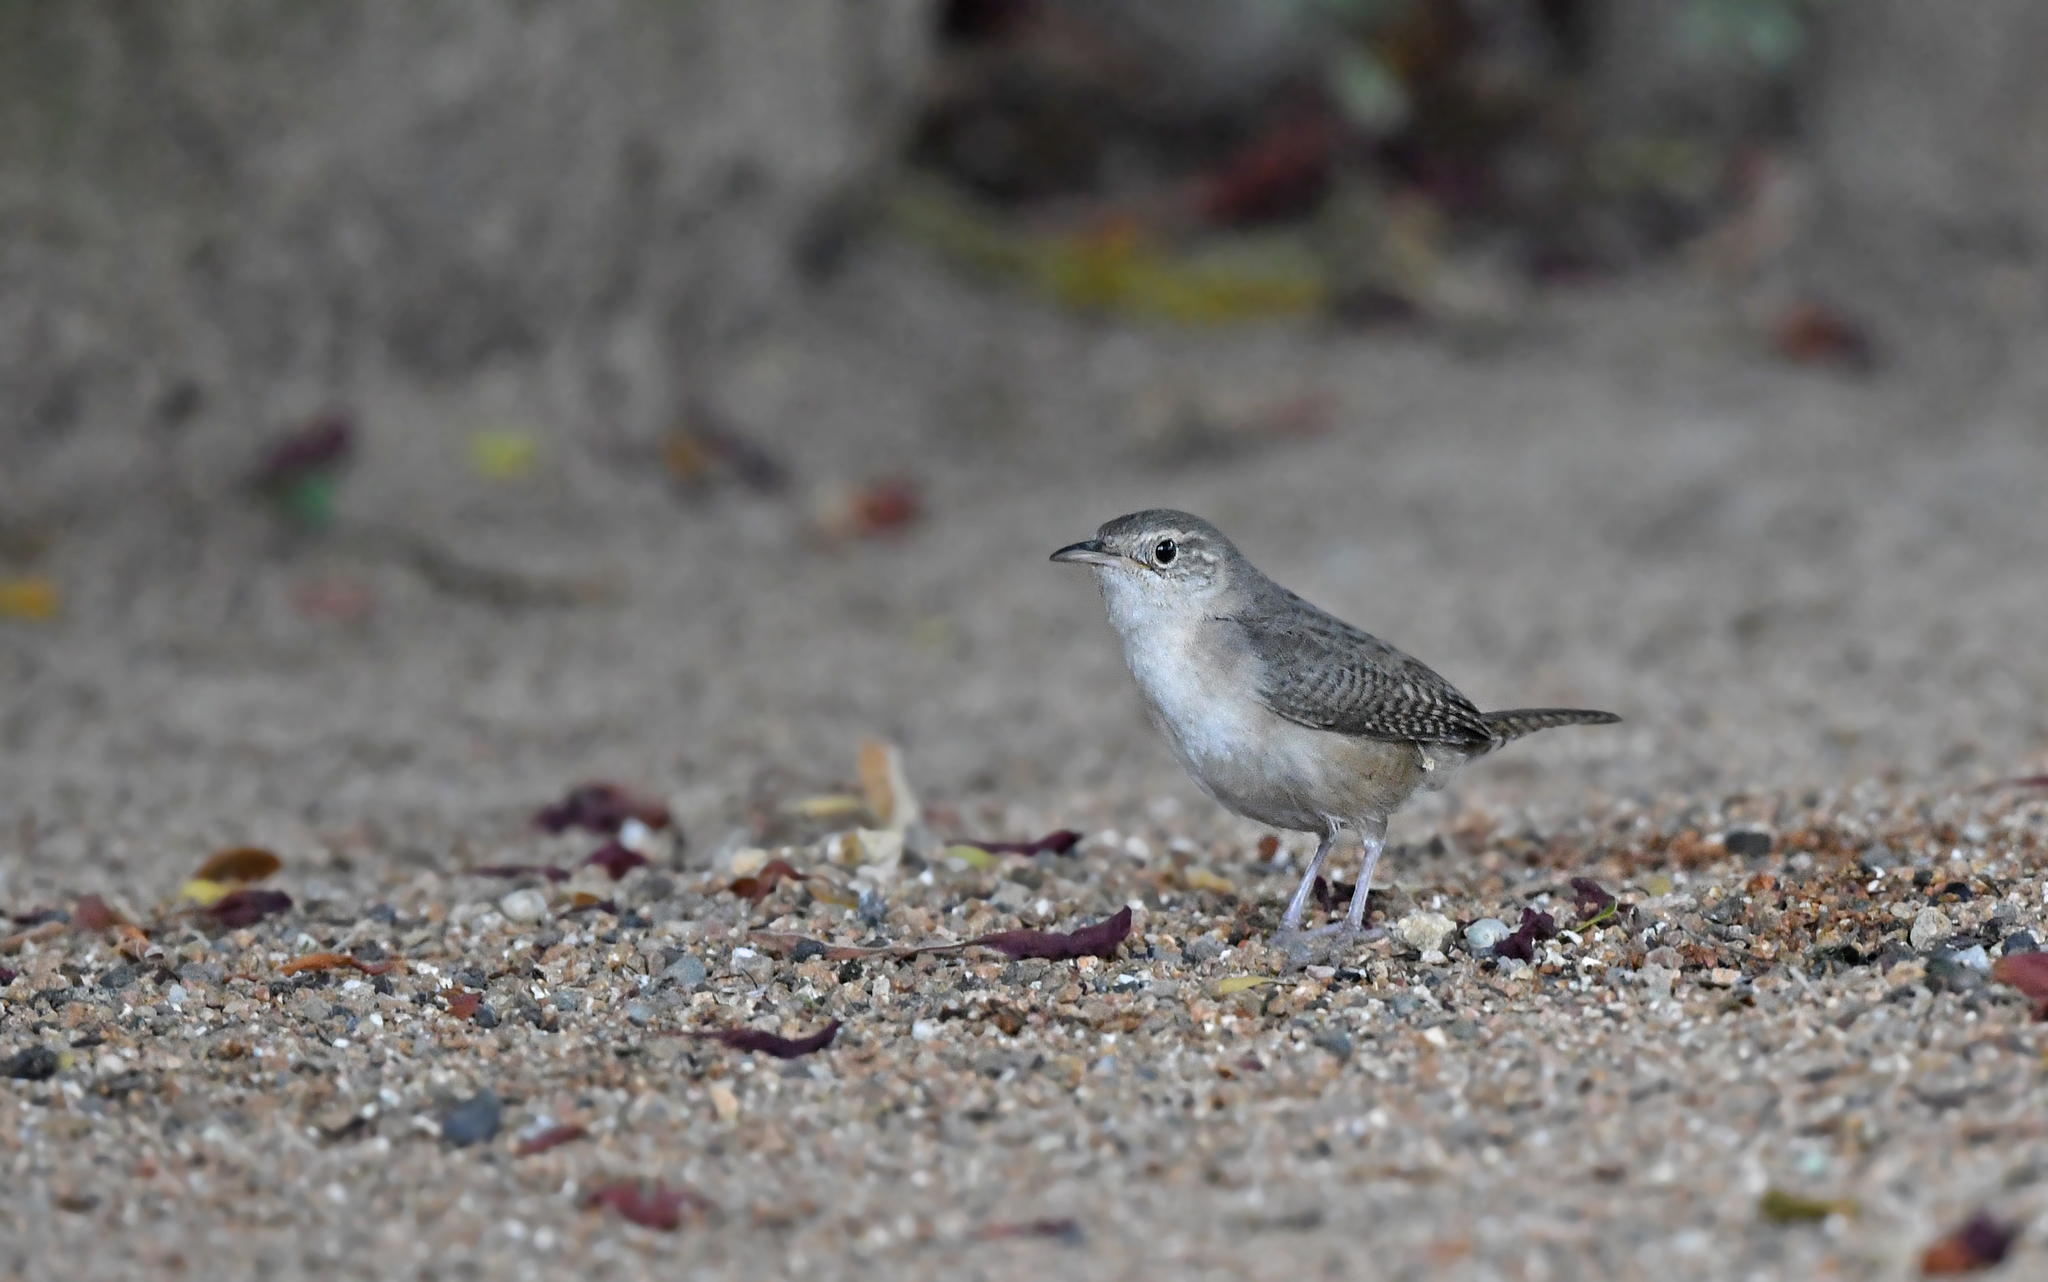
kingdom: Animalia
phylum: Chordata
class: Aves
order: Passeriformes
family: Troglodytidae
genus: Troglodytes
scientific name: Troglodytes aedon
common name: House wren
